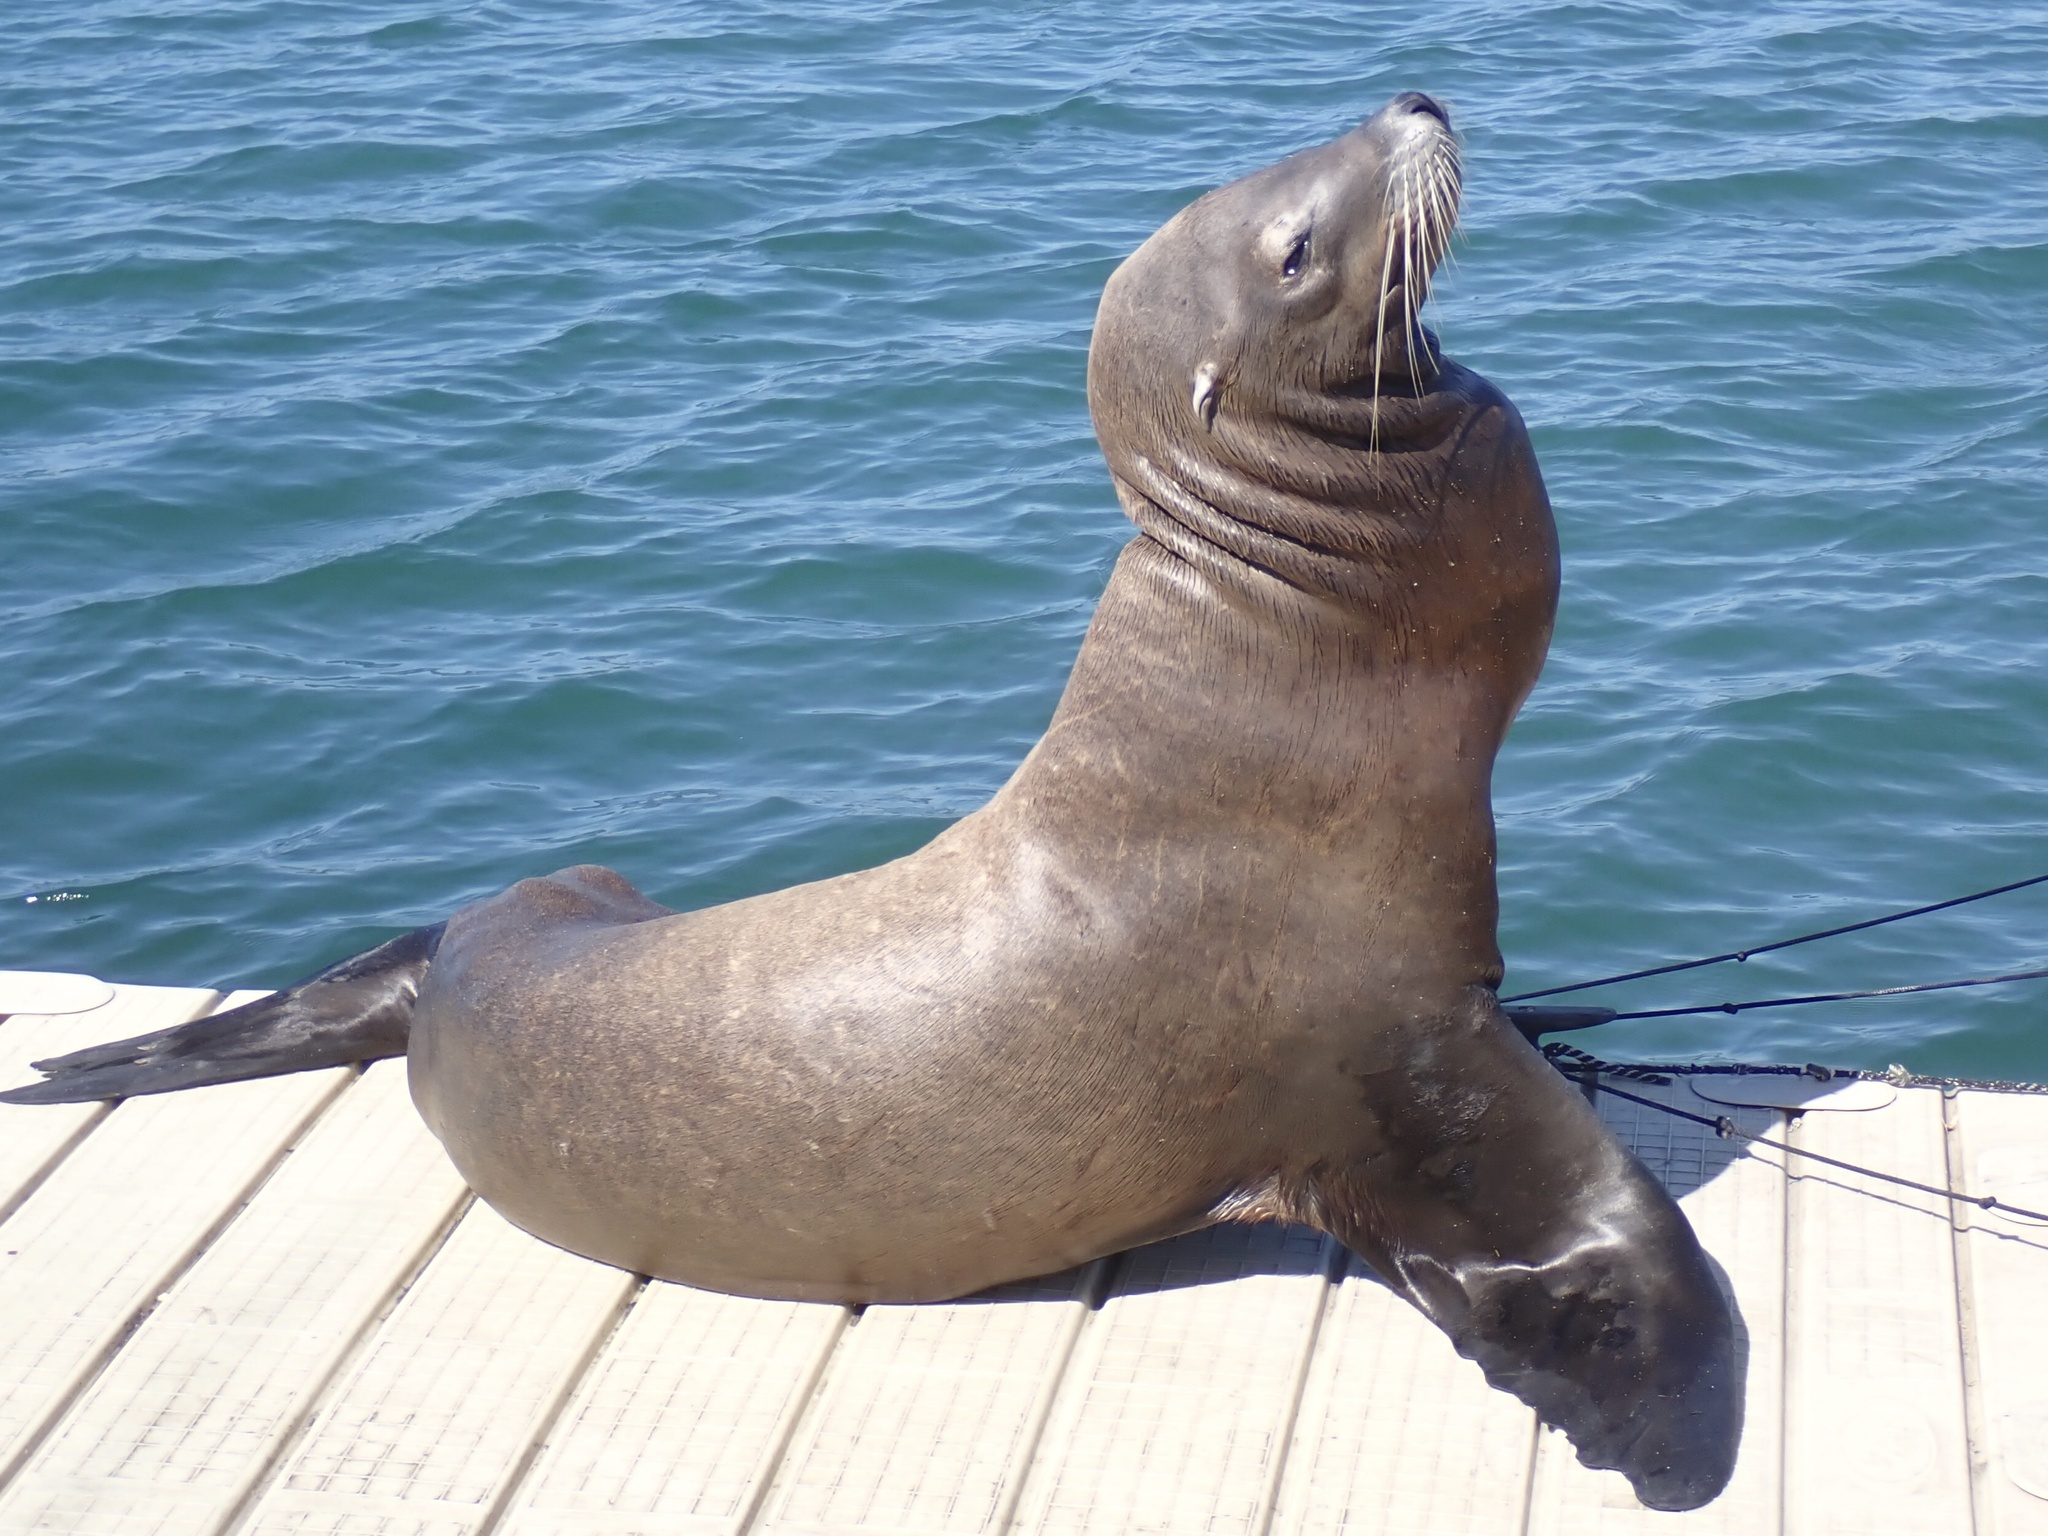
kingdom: Animalia
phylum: Chordata
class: Mammalia
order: Carnivora
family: Otariidae
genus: Zalophus
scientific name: Zalophus californianus
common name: California sea lion
